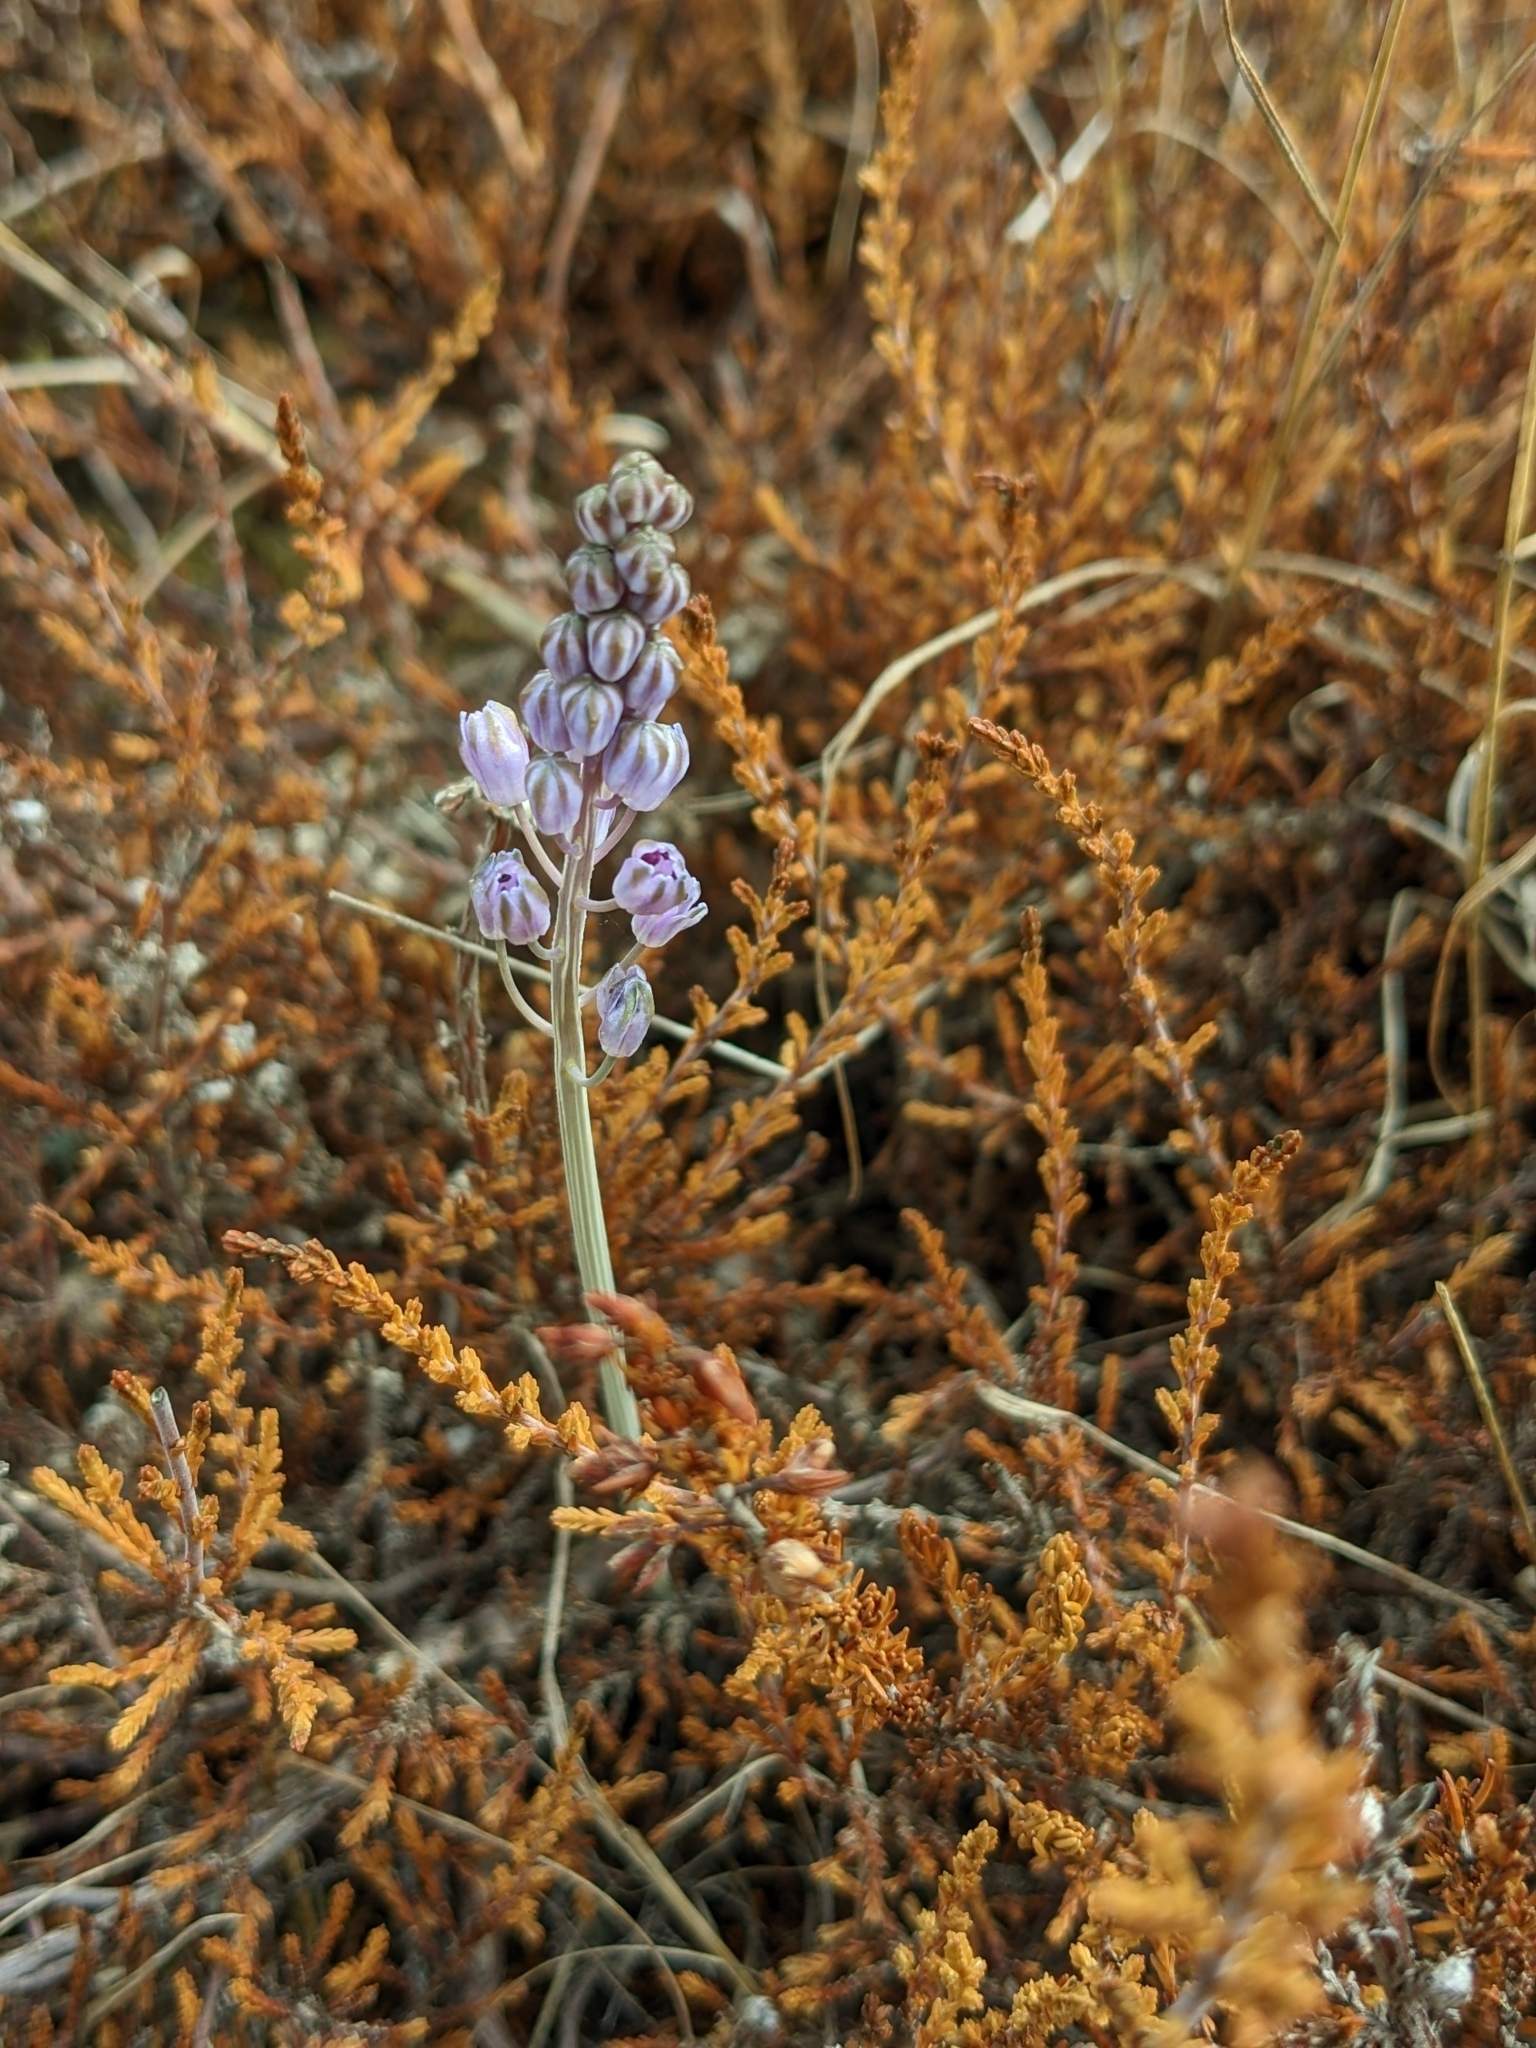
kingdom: Plantae
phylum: Tracheophyta
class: Liliopsida
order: Asparagales
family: Asparagaceae
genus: Prospero
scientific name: Prospero autumnale
